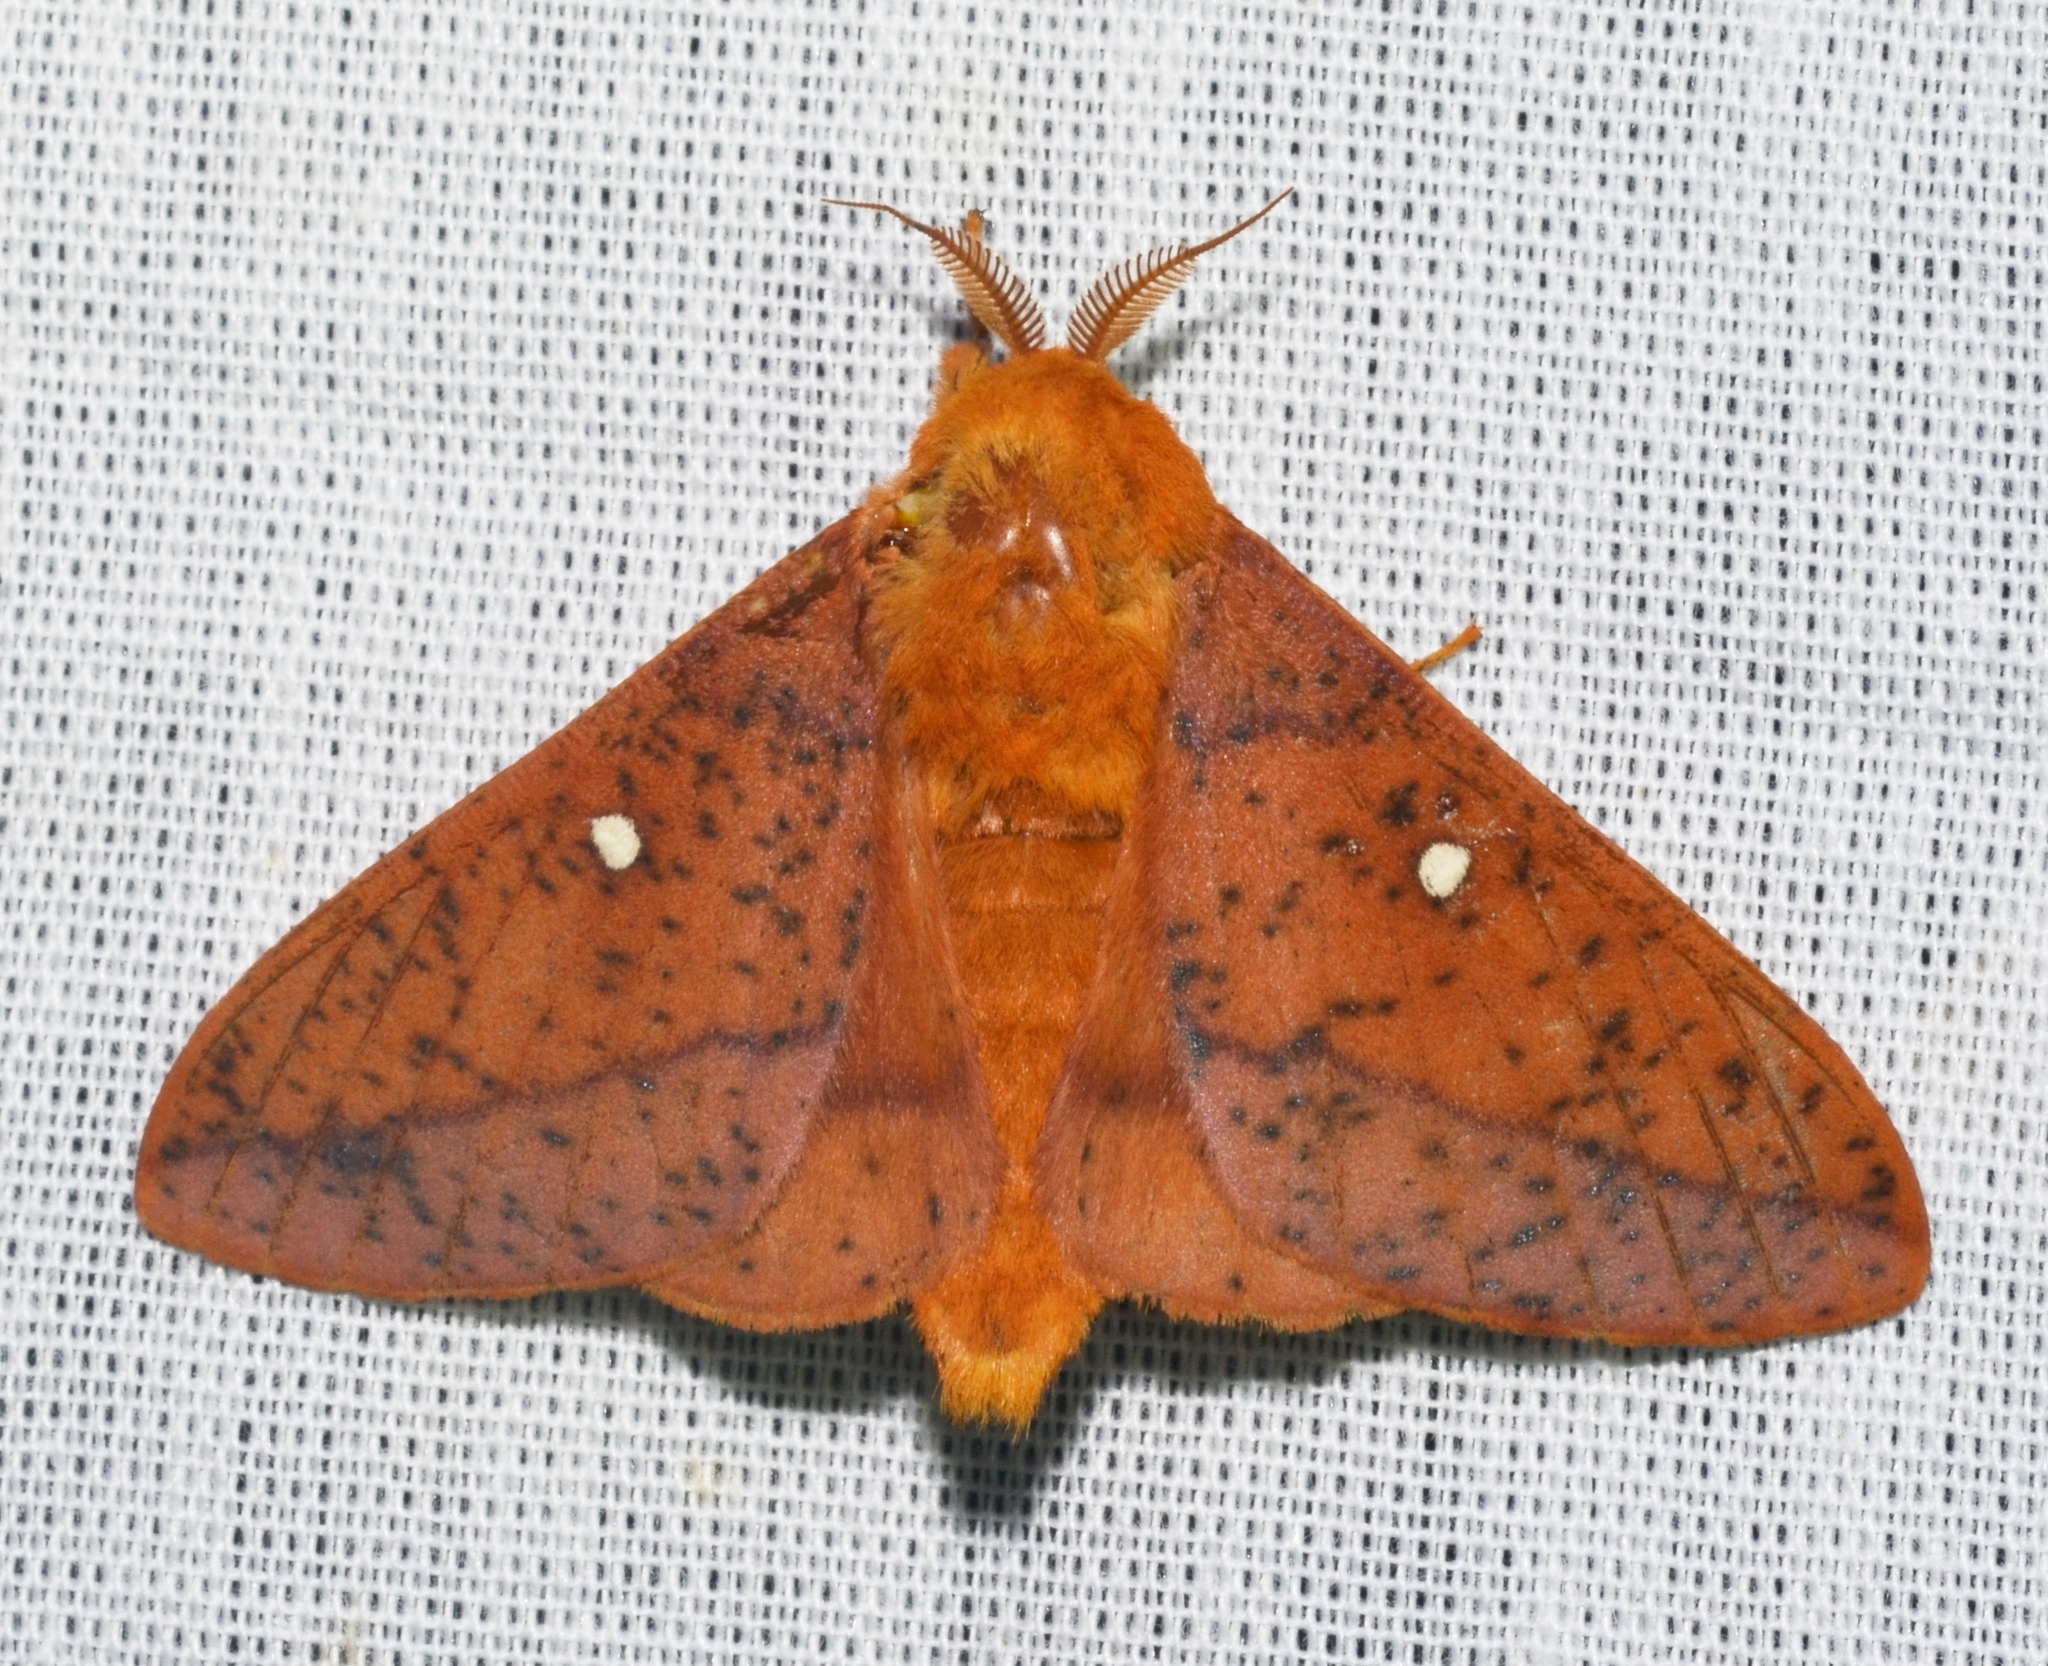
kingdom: Animalia
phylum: Arthropoda
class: Insecta
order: Lepidoptera
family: Saturniidae
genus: Anisota
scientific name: Anisota stigma
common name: Spiny oakworm moth
